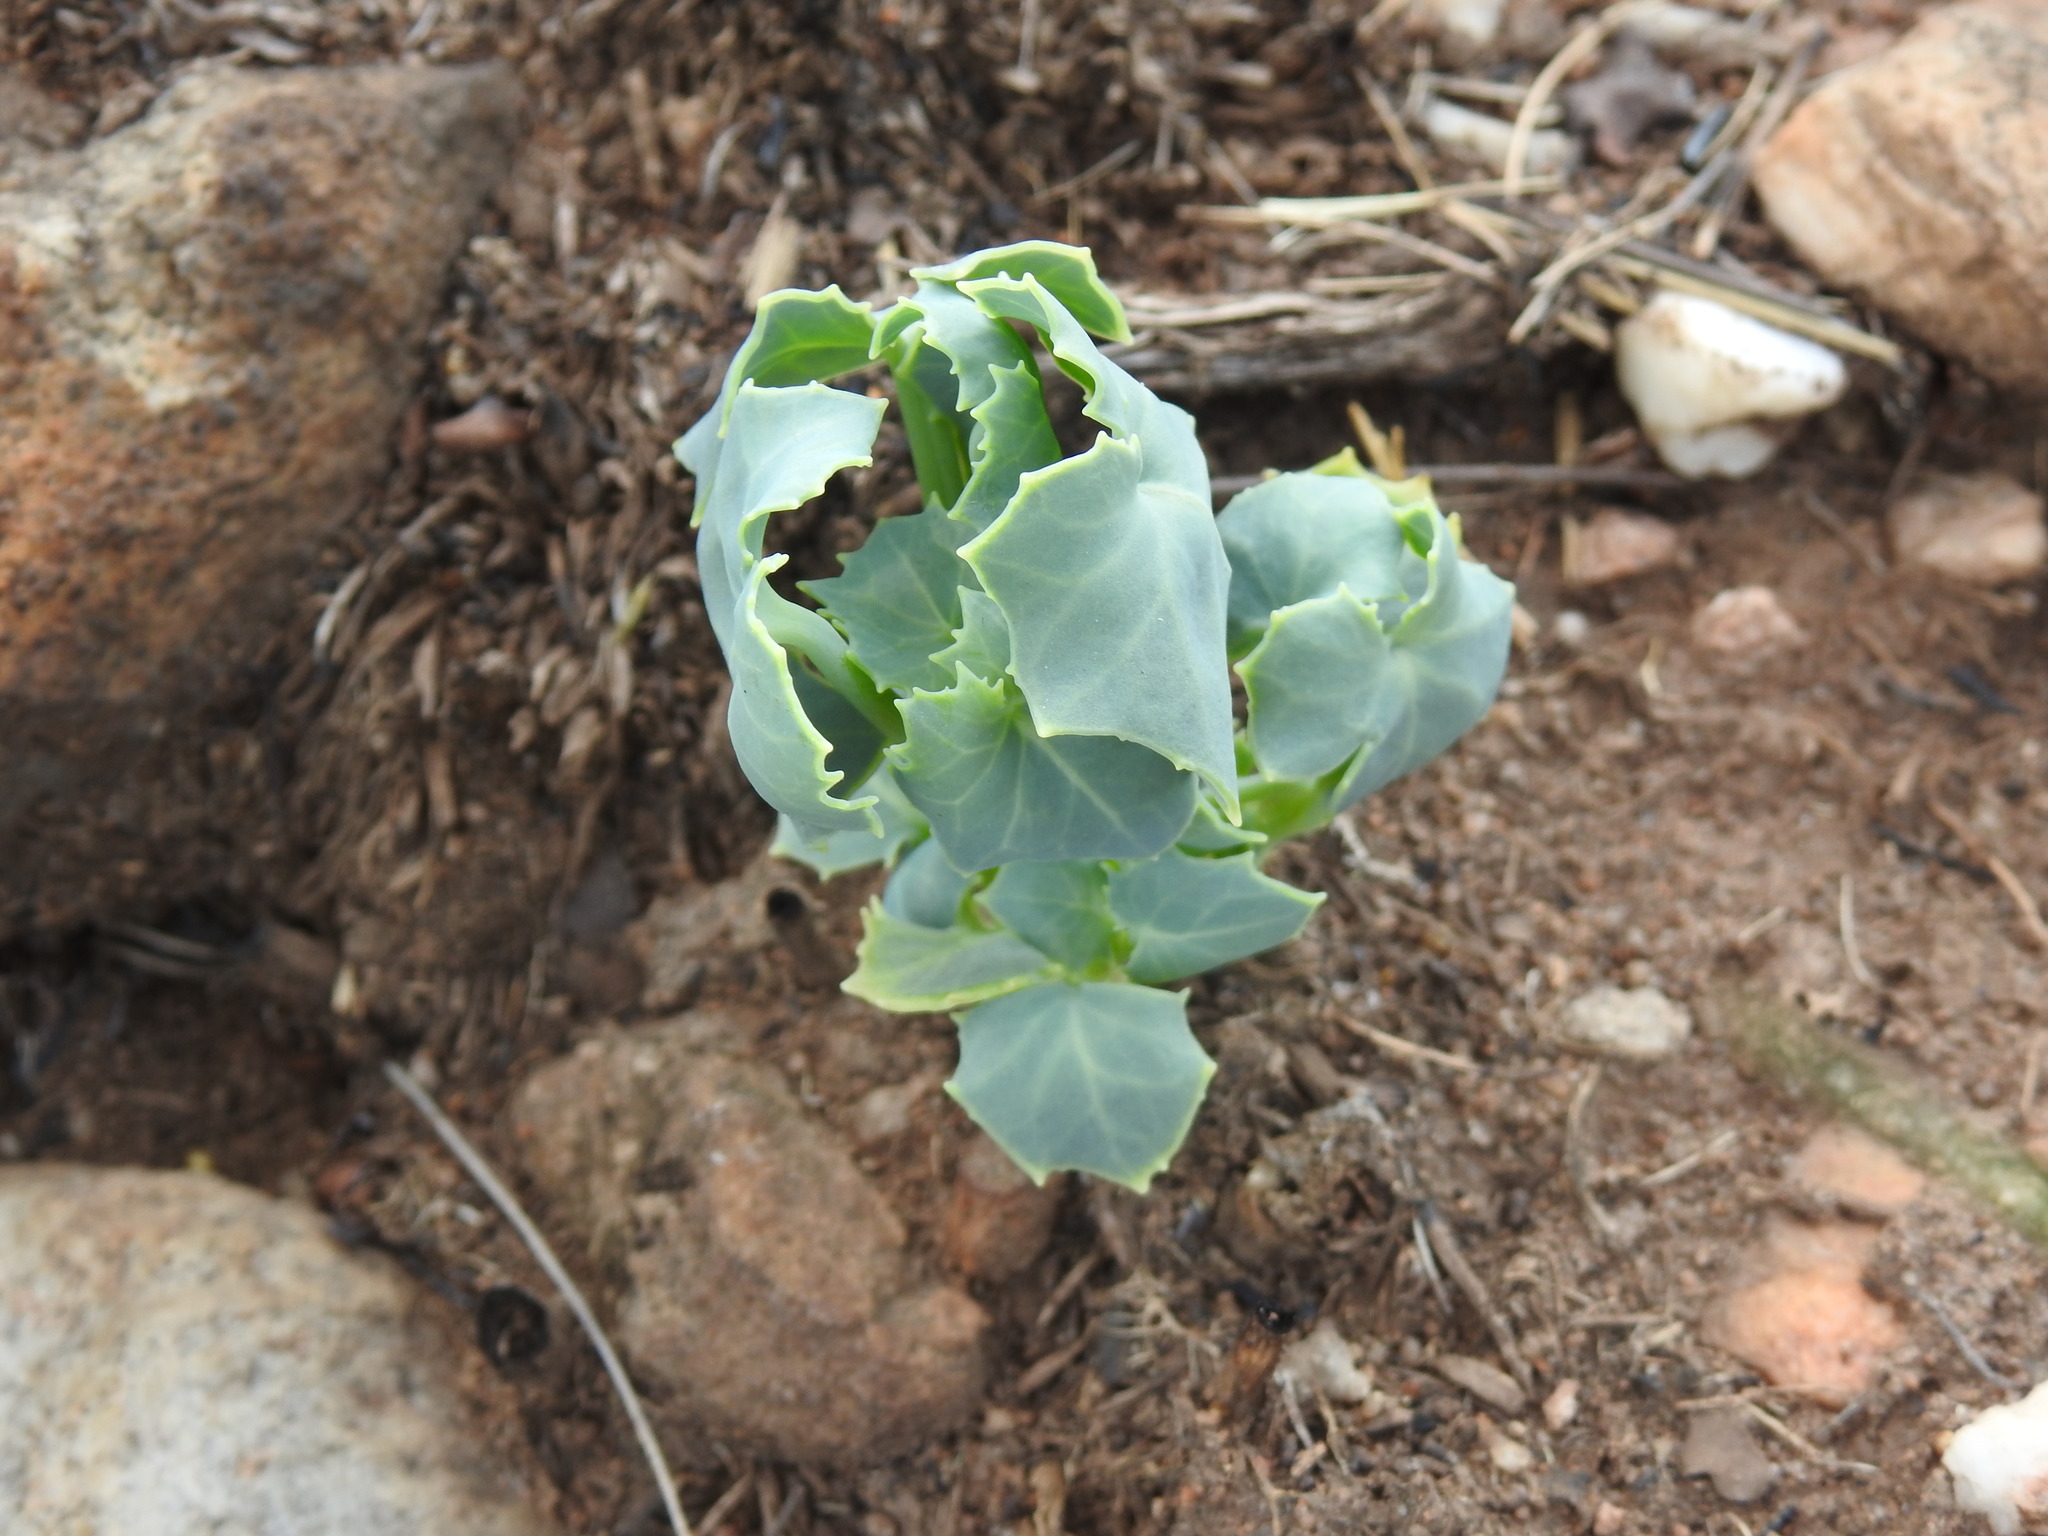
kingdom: Plantae
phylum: Tracheophyta
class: Magnoliopsida
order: Asterales
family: Asteraceae
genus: Senecio
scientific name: Senecio oxyriifolius
